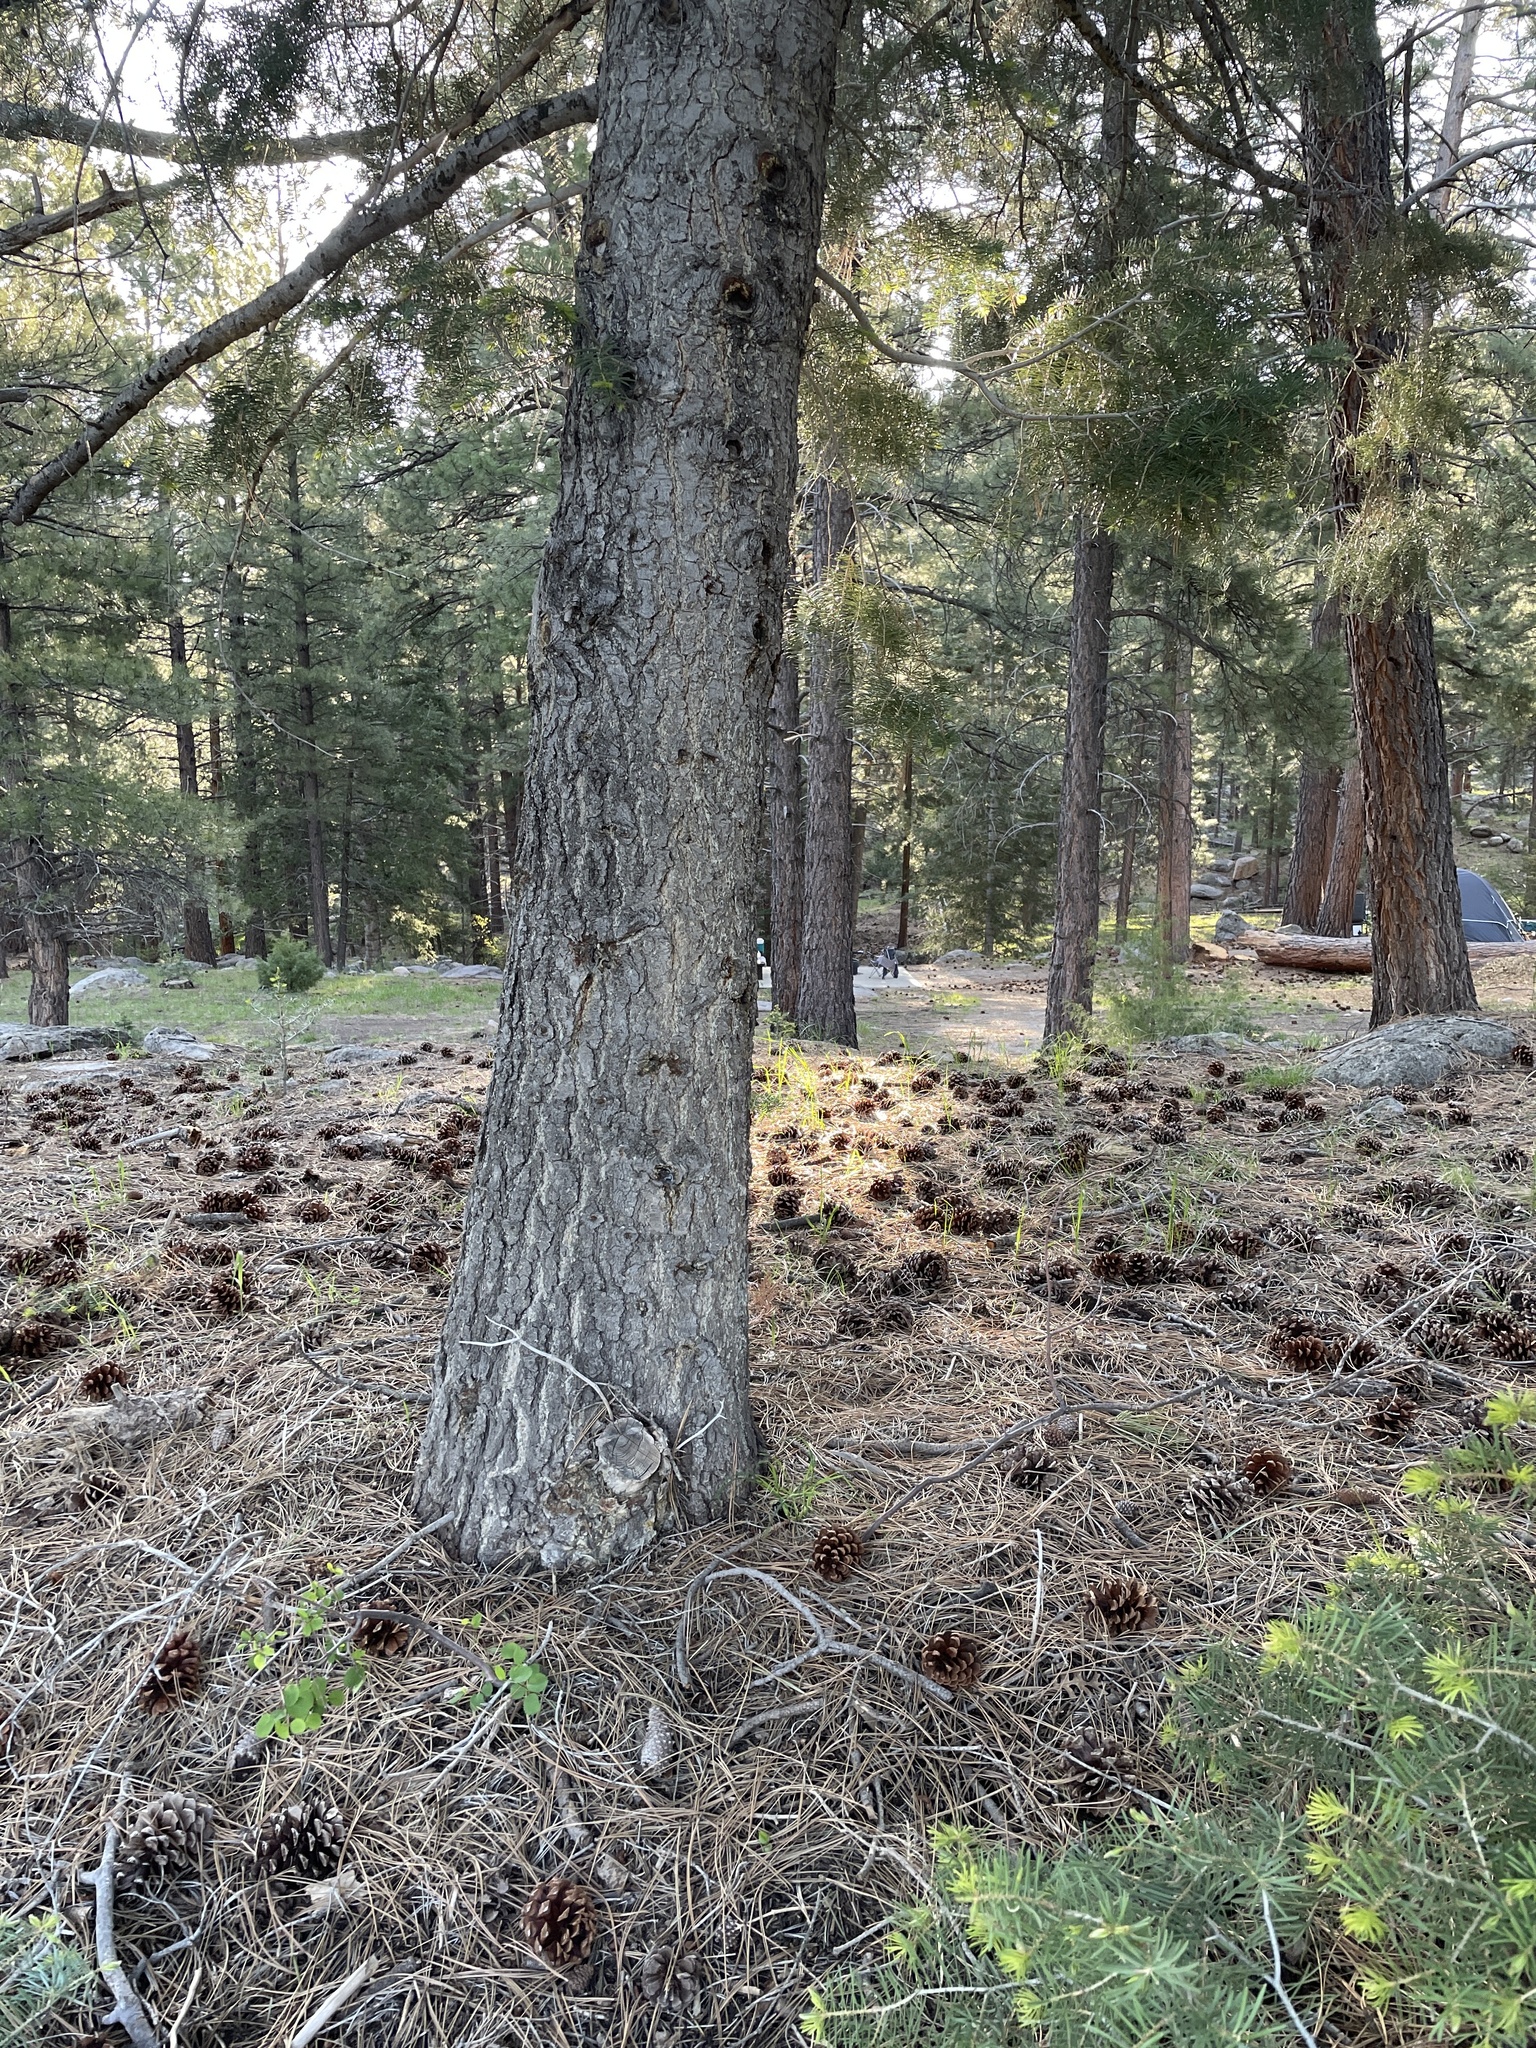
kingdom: Plantae
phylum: Tracheophyta
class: Pinopsida
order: Pinales
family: Pinaceae
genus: Abies
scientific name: Abies concolor
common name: Colorado fir
